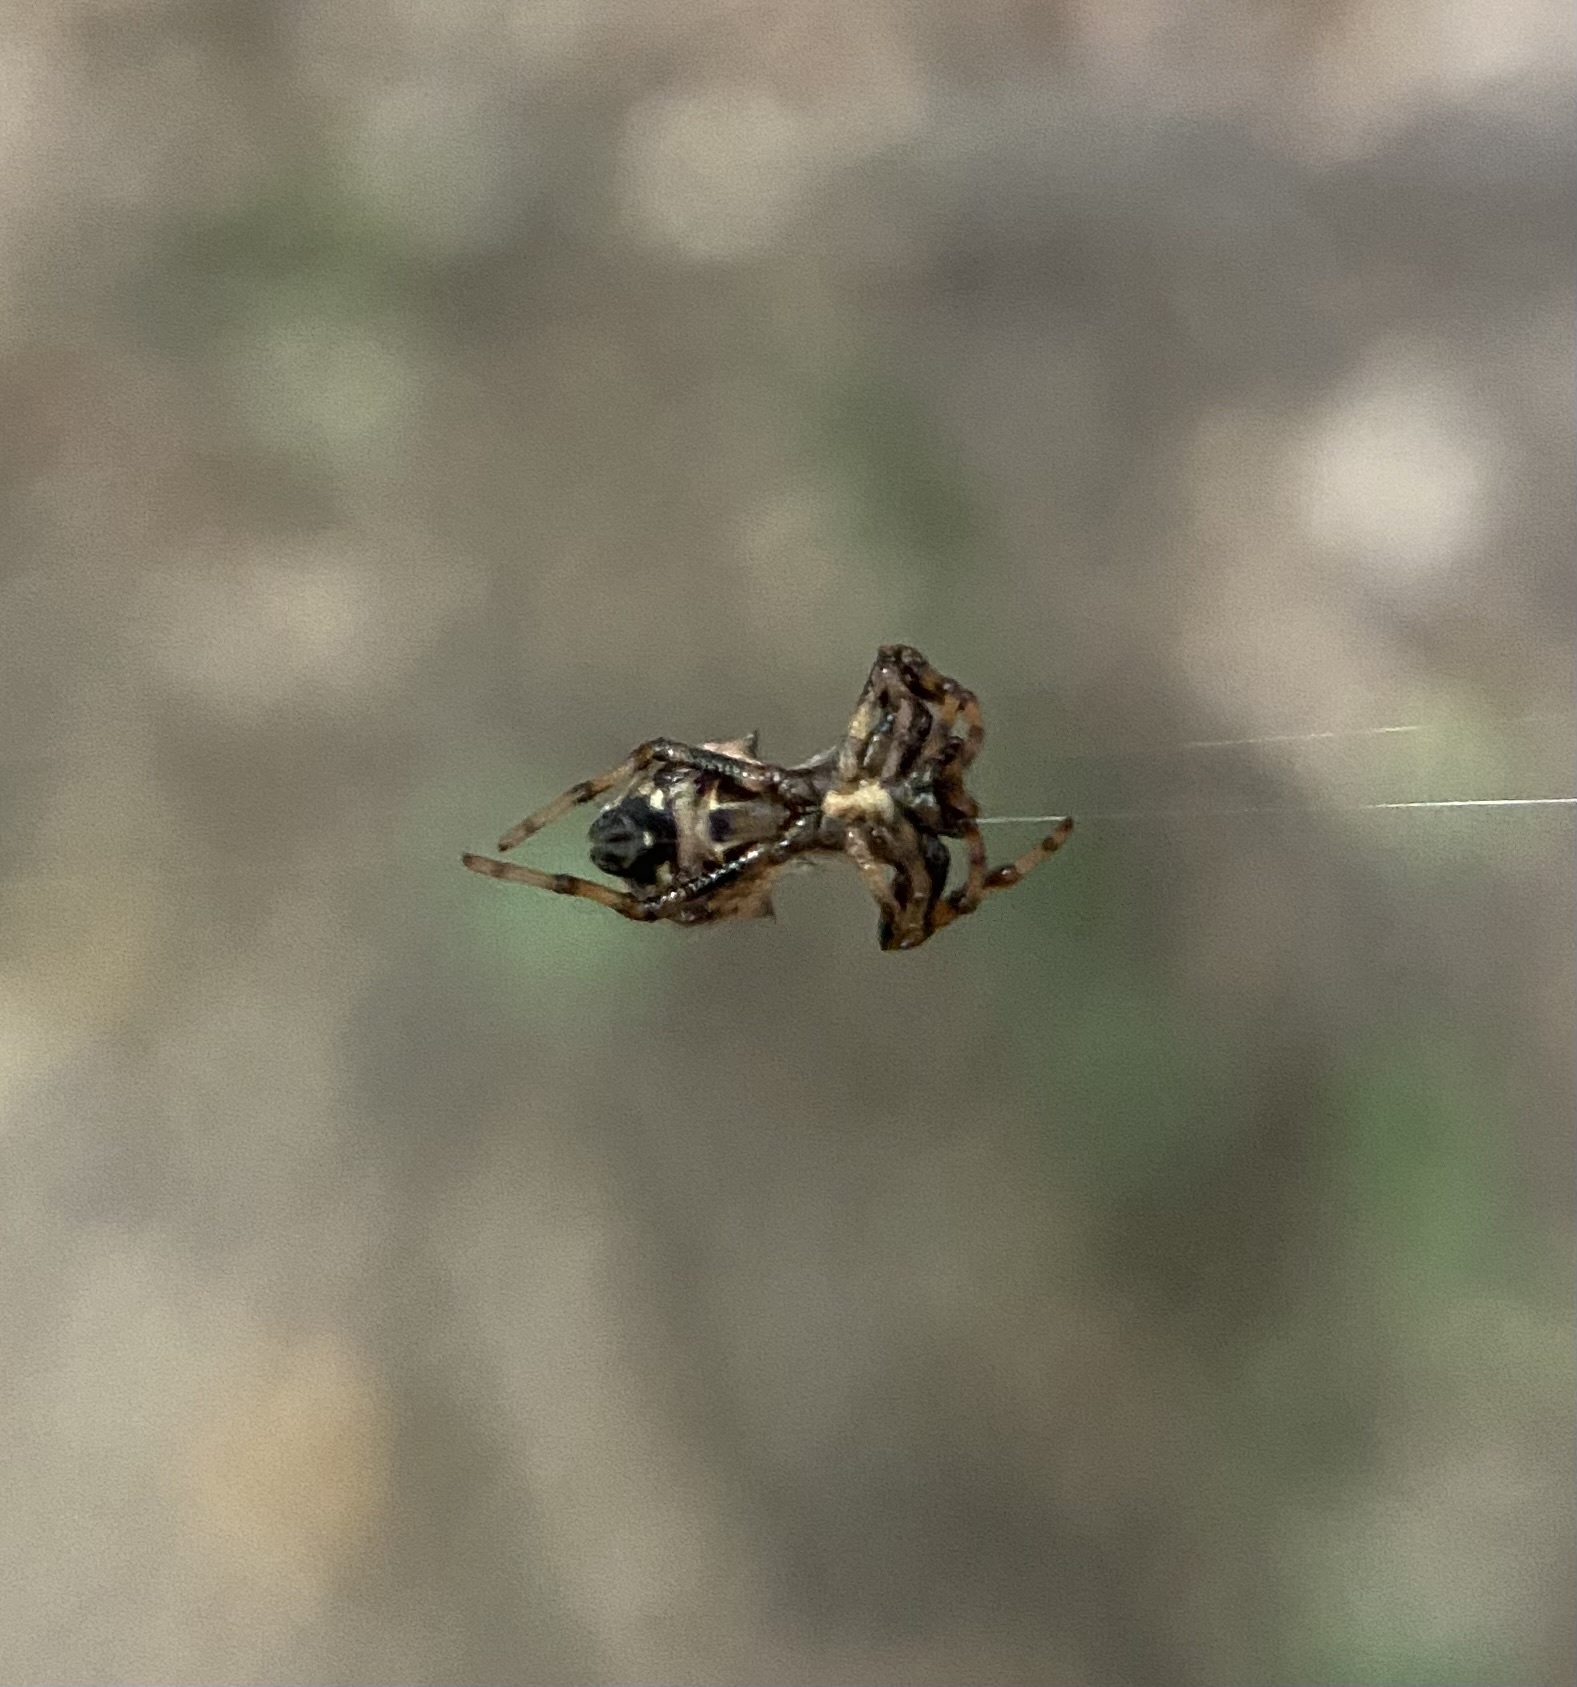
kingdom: Animalia
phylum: Arthropoda
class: Arachnida
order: Araneae
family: Araneidae
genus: Micrathena
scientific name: Micrathena gracilis
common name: Orb weavers
